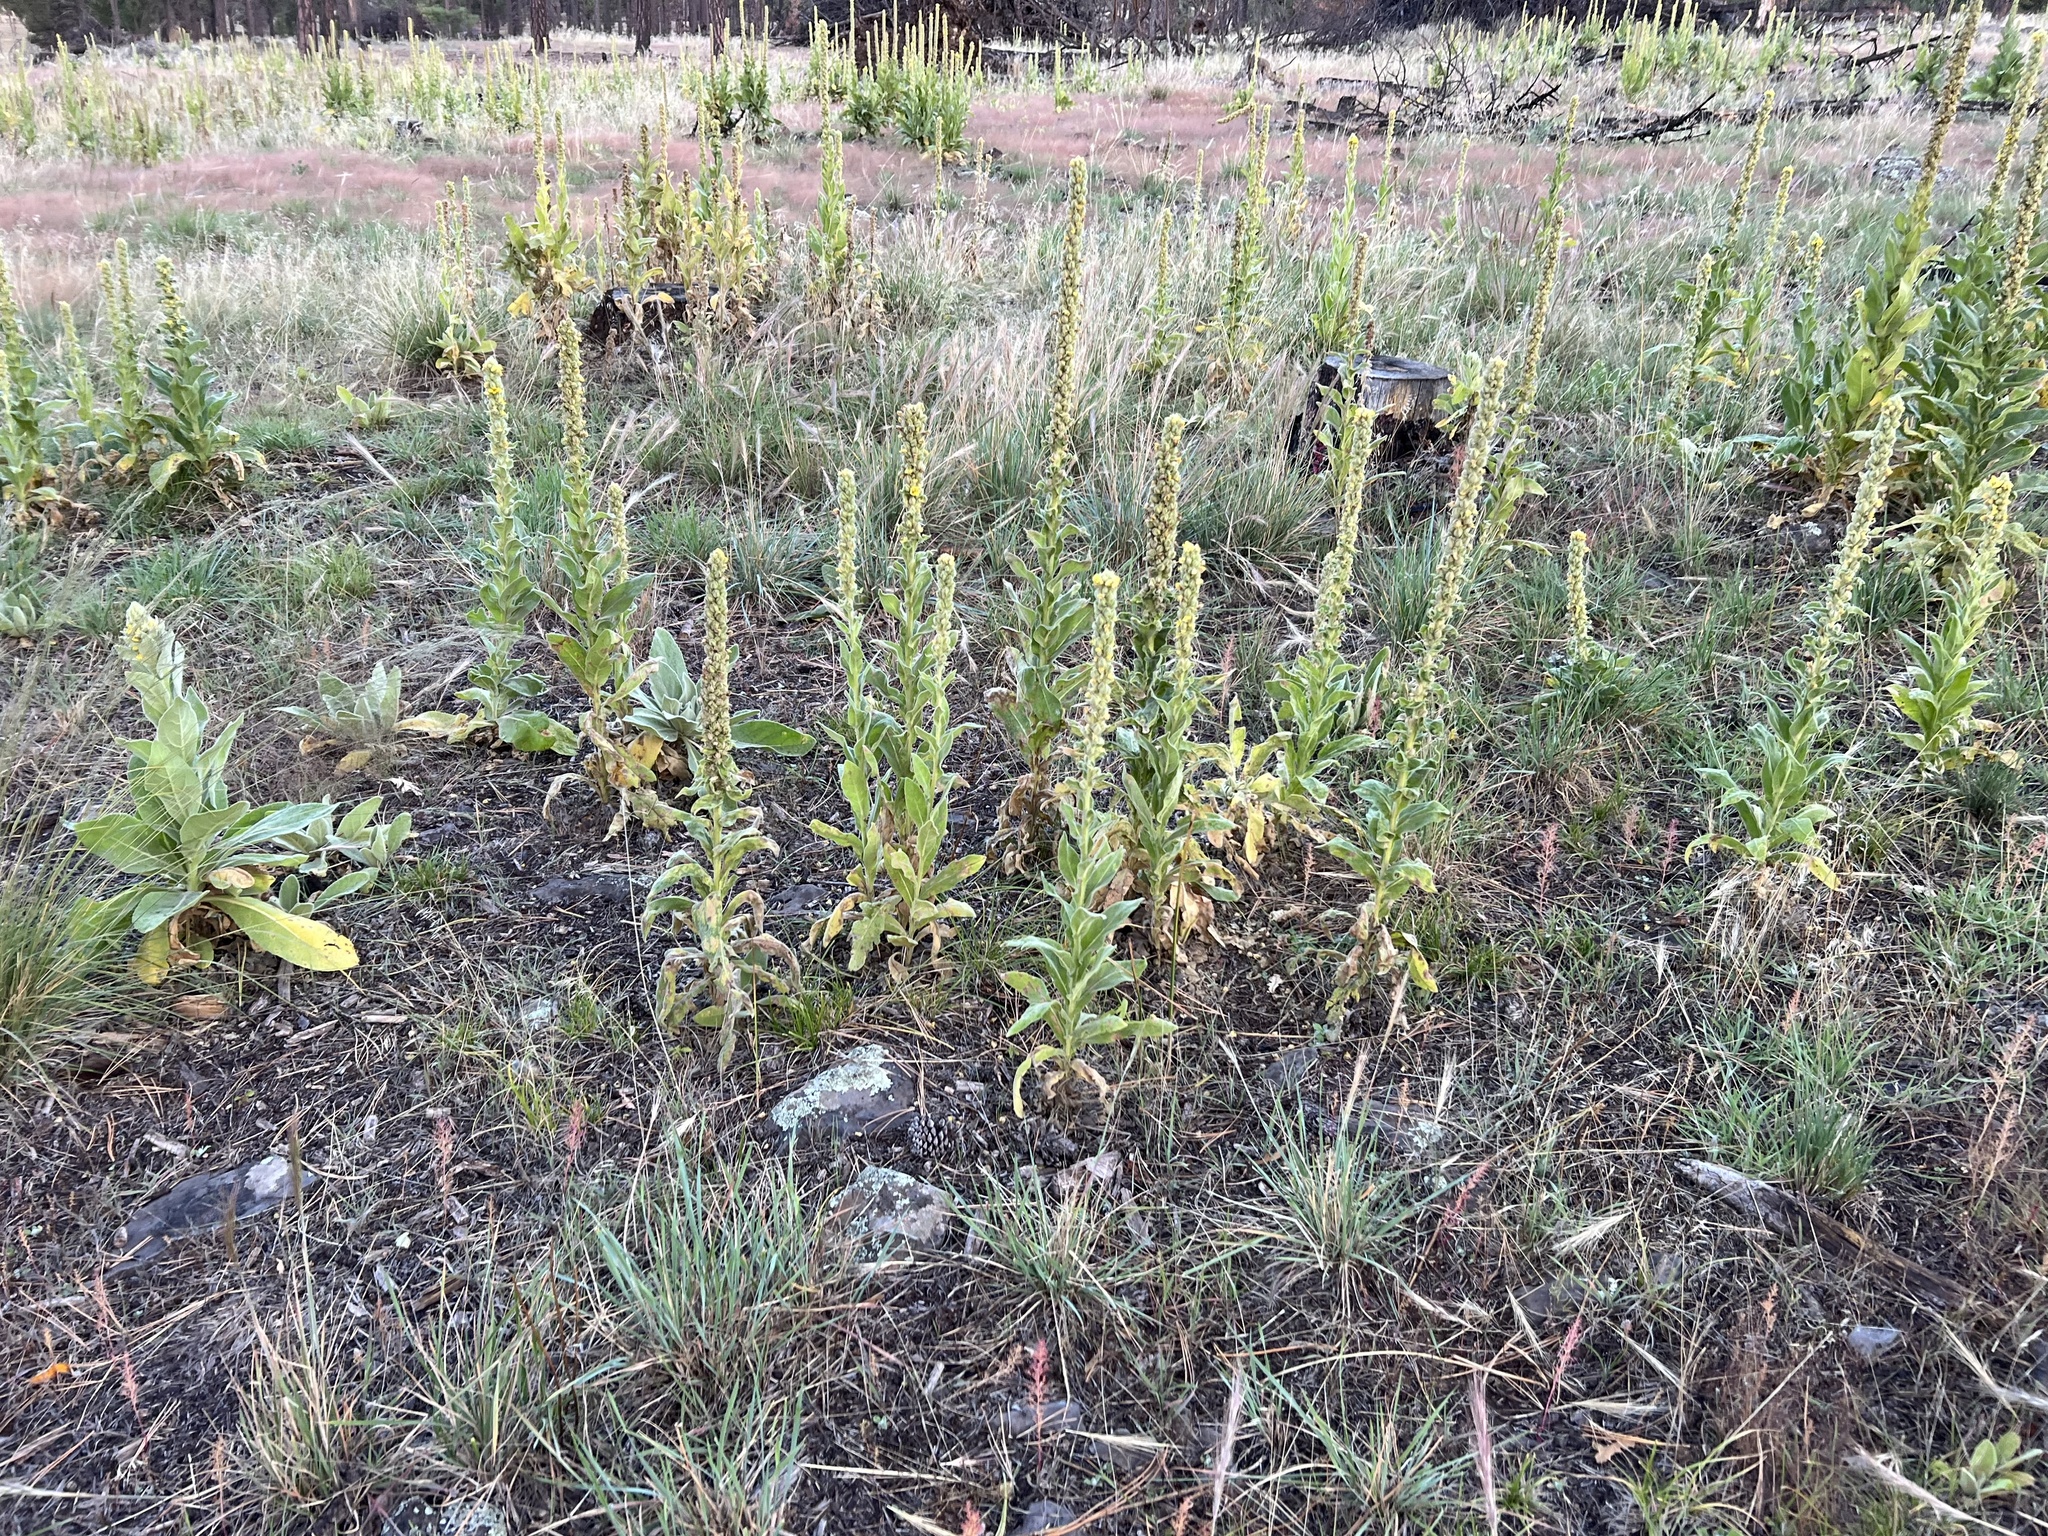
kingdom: Plantae
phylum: Tracheophyta
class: Magnoliopsida
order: Lamiales
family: Scrophulariaceae
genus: Verbascum
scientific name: Verbascum thapsus
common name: Common mullein
